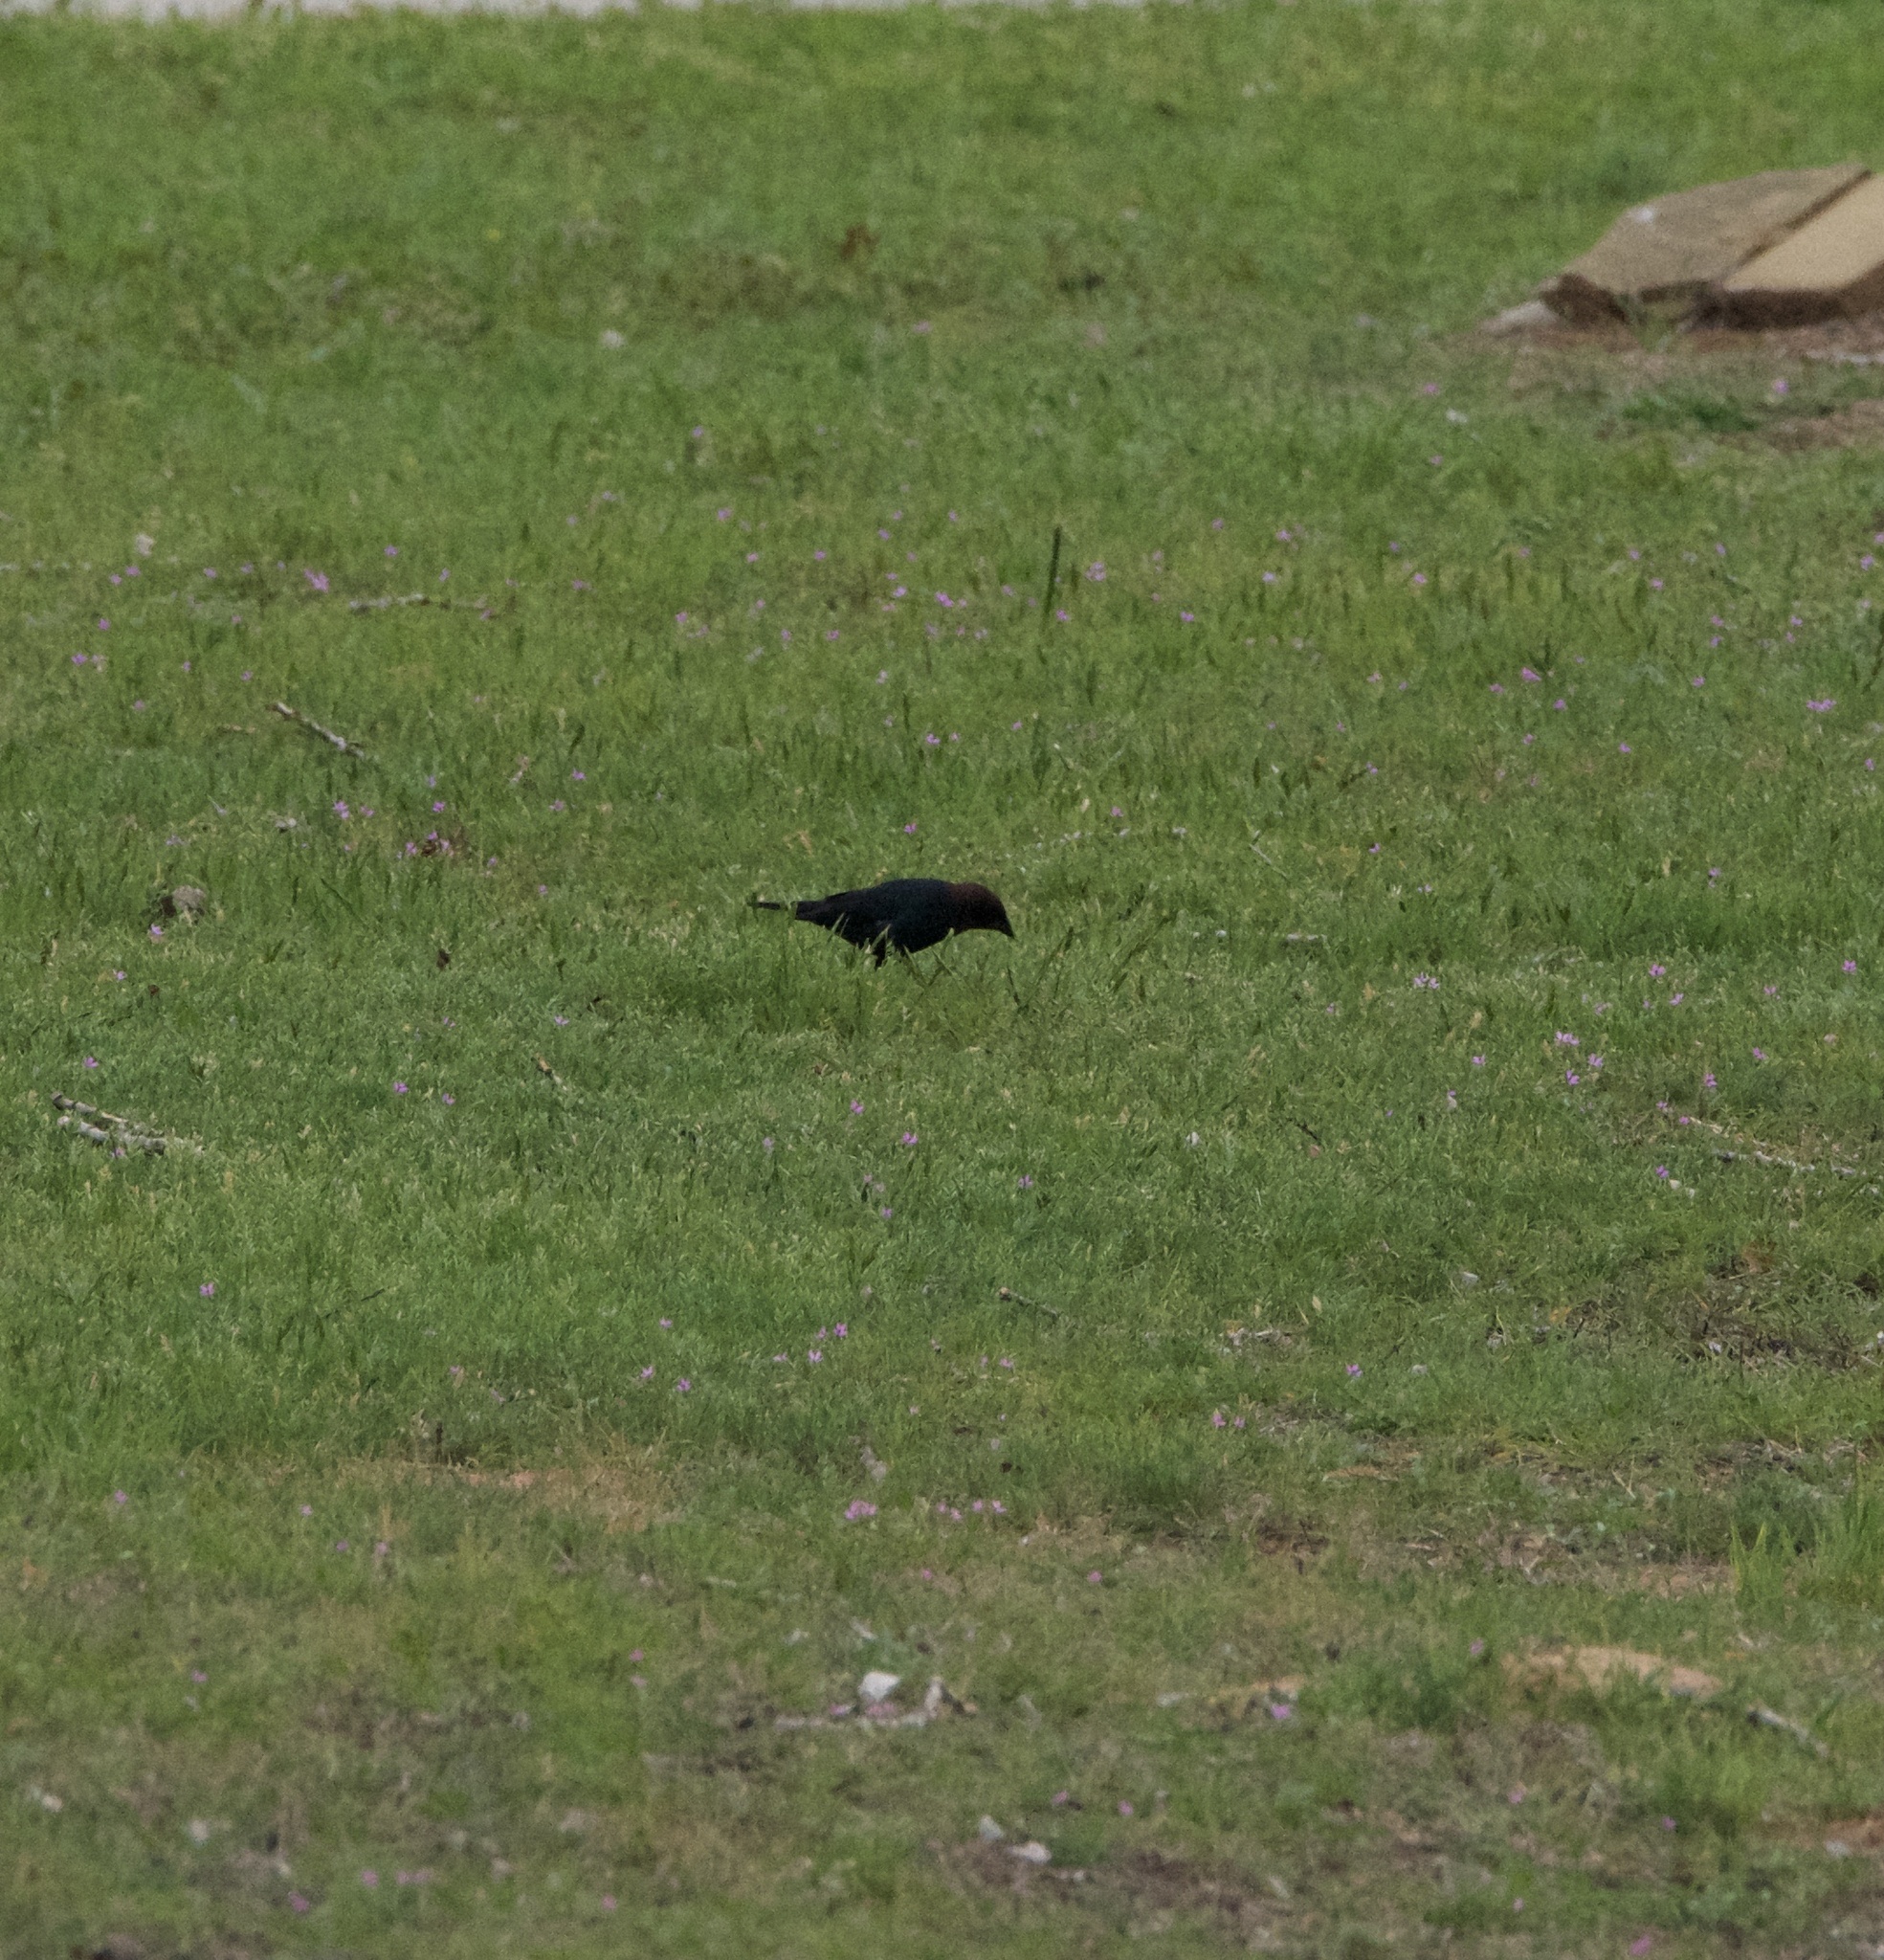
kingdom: Animalia
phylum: Chordata
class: Aves
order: Passeriformes
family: Icteridae
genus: Molothrus
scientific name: Molothrus ater
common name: Brown-headed cowbird
